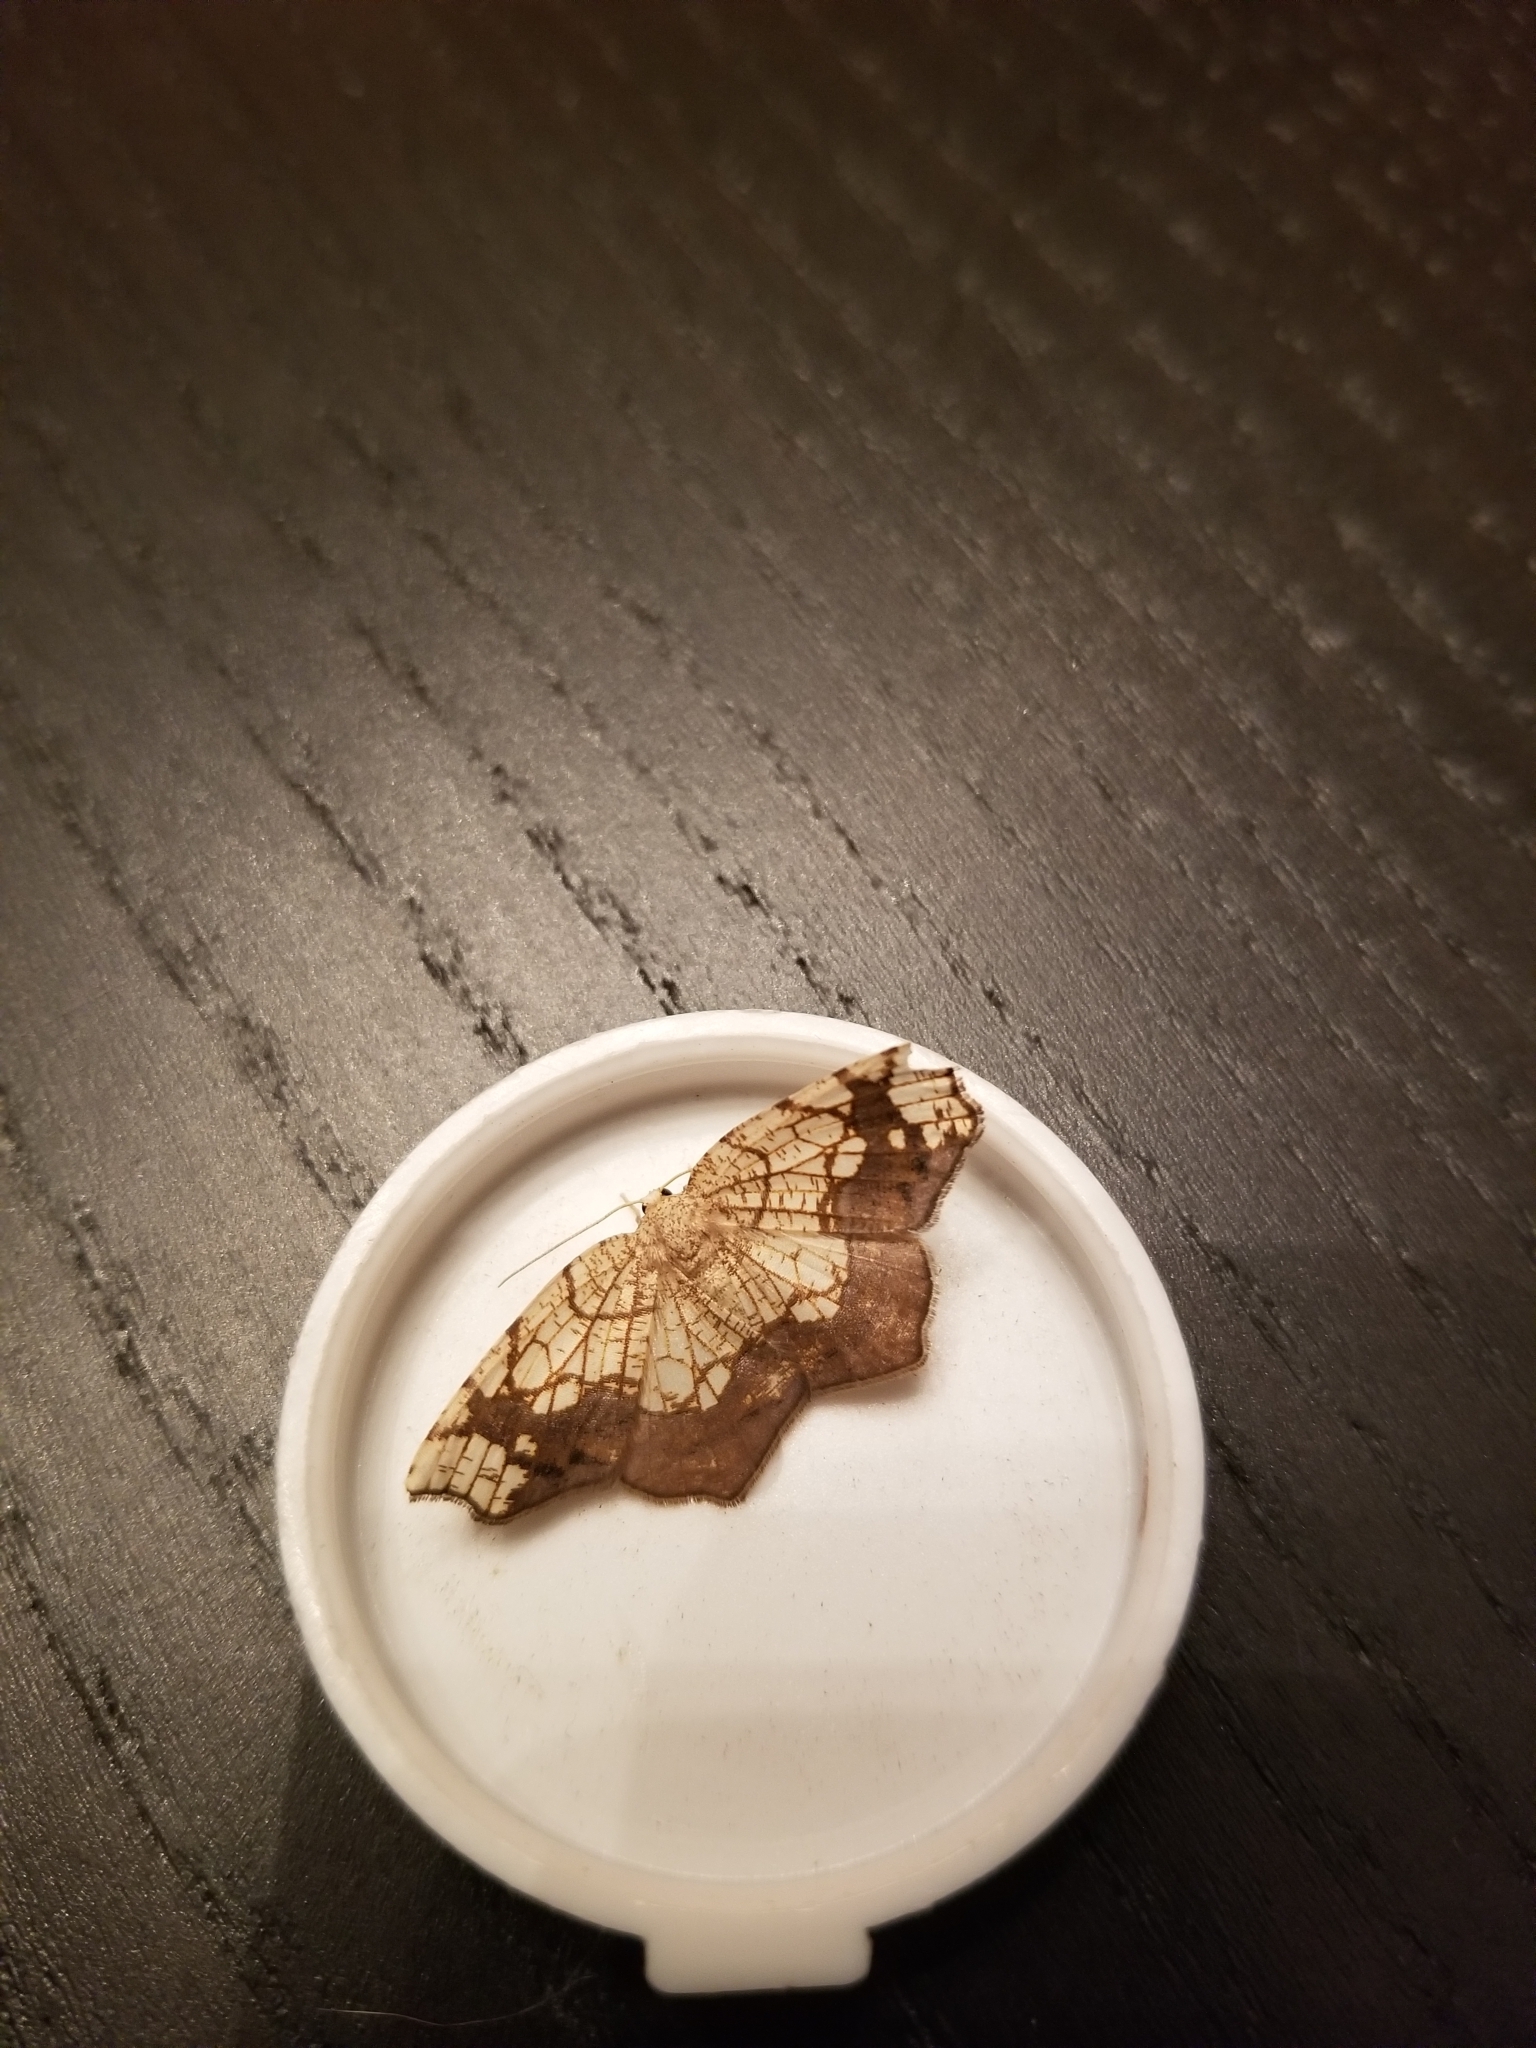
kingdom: Animalia
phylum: Arthropoda
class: Insecta
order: Lepidoptera
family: Geometridae
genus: Nematocampa
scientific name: Nematocampa resistaria
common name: Horned spanworm moth
